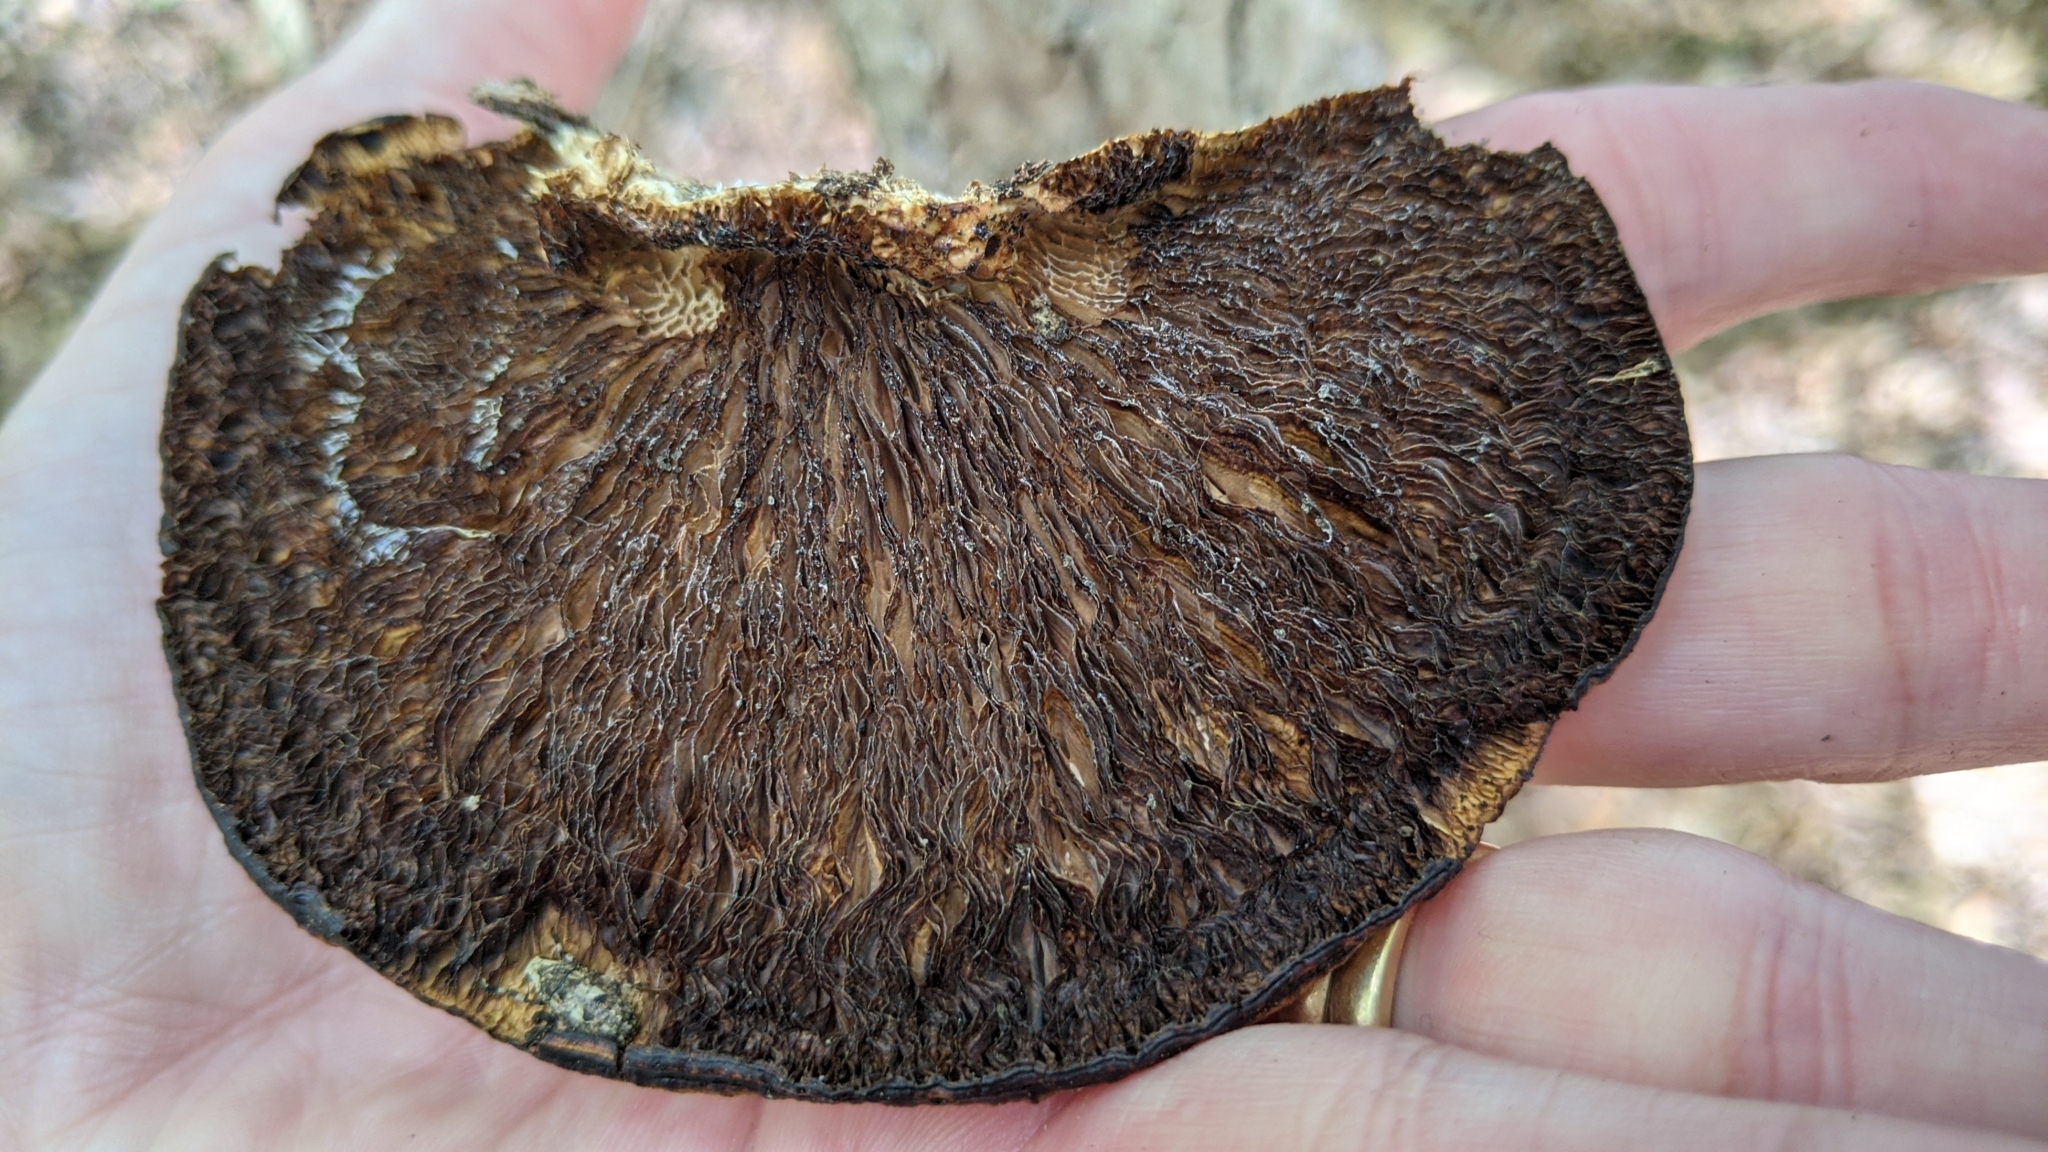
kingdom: Fungi
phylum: Basidiomycota
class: Agaricomycetes
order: Polyporales
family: Polyporaceae
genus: Daedaleopsis
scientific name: Daedaleopsis confragosa
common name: Blushing bracket
